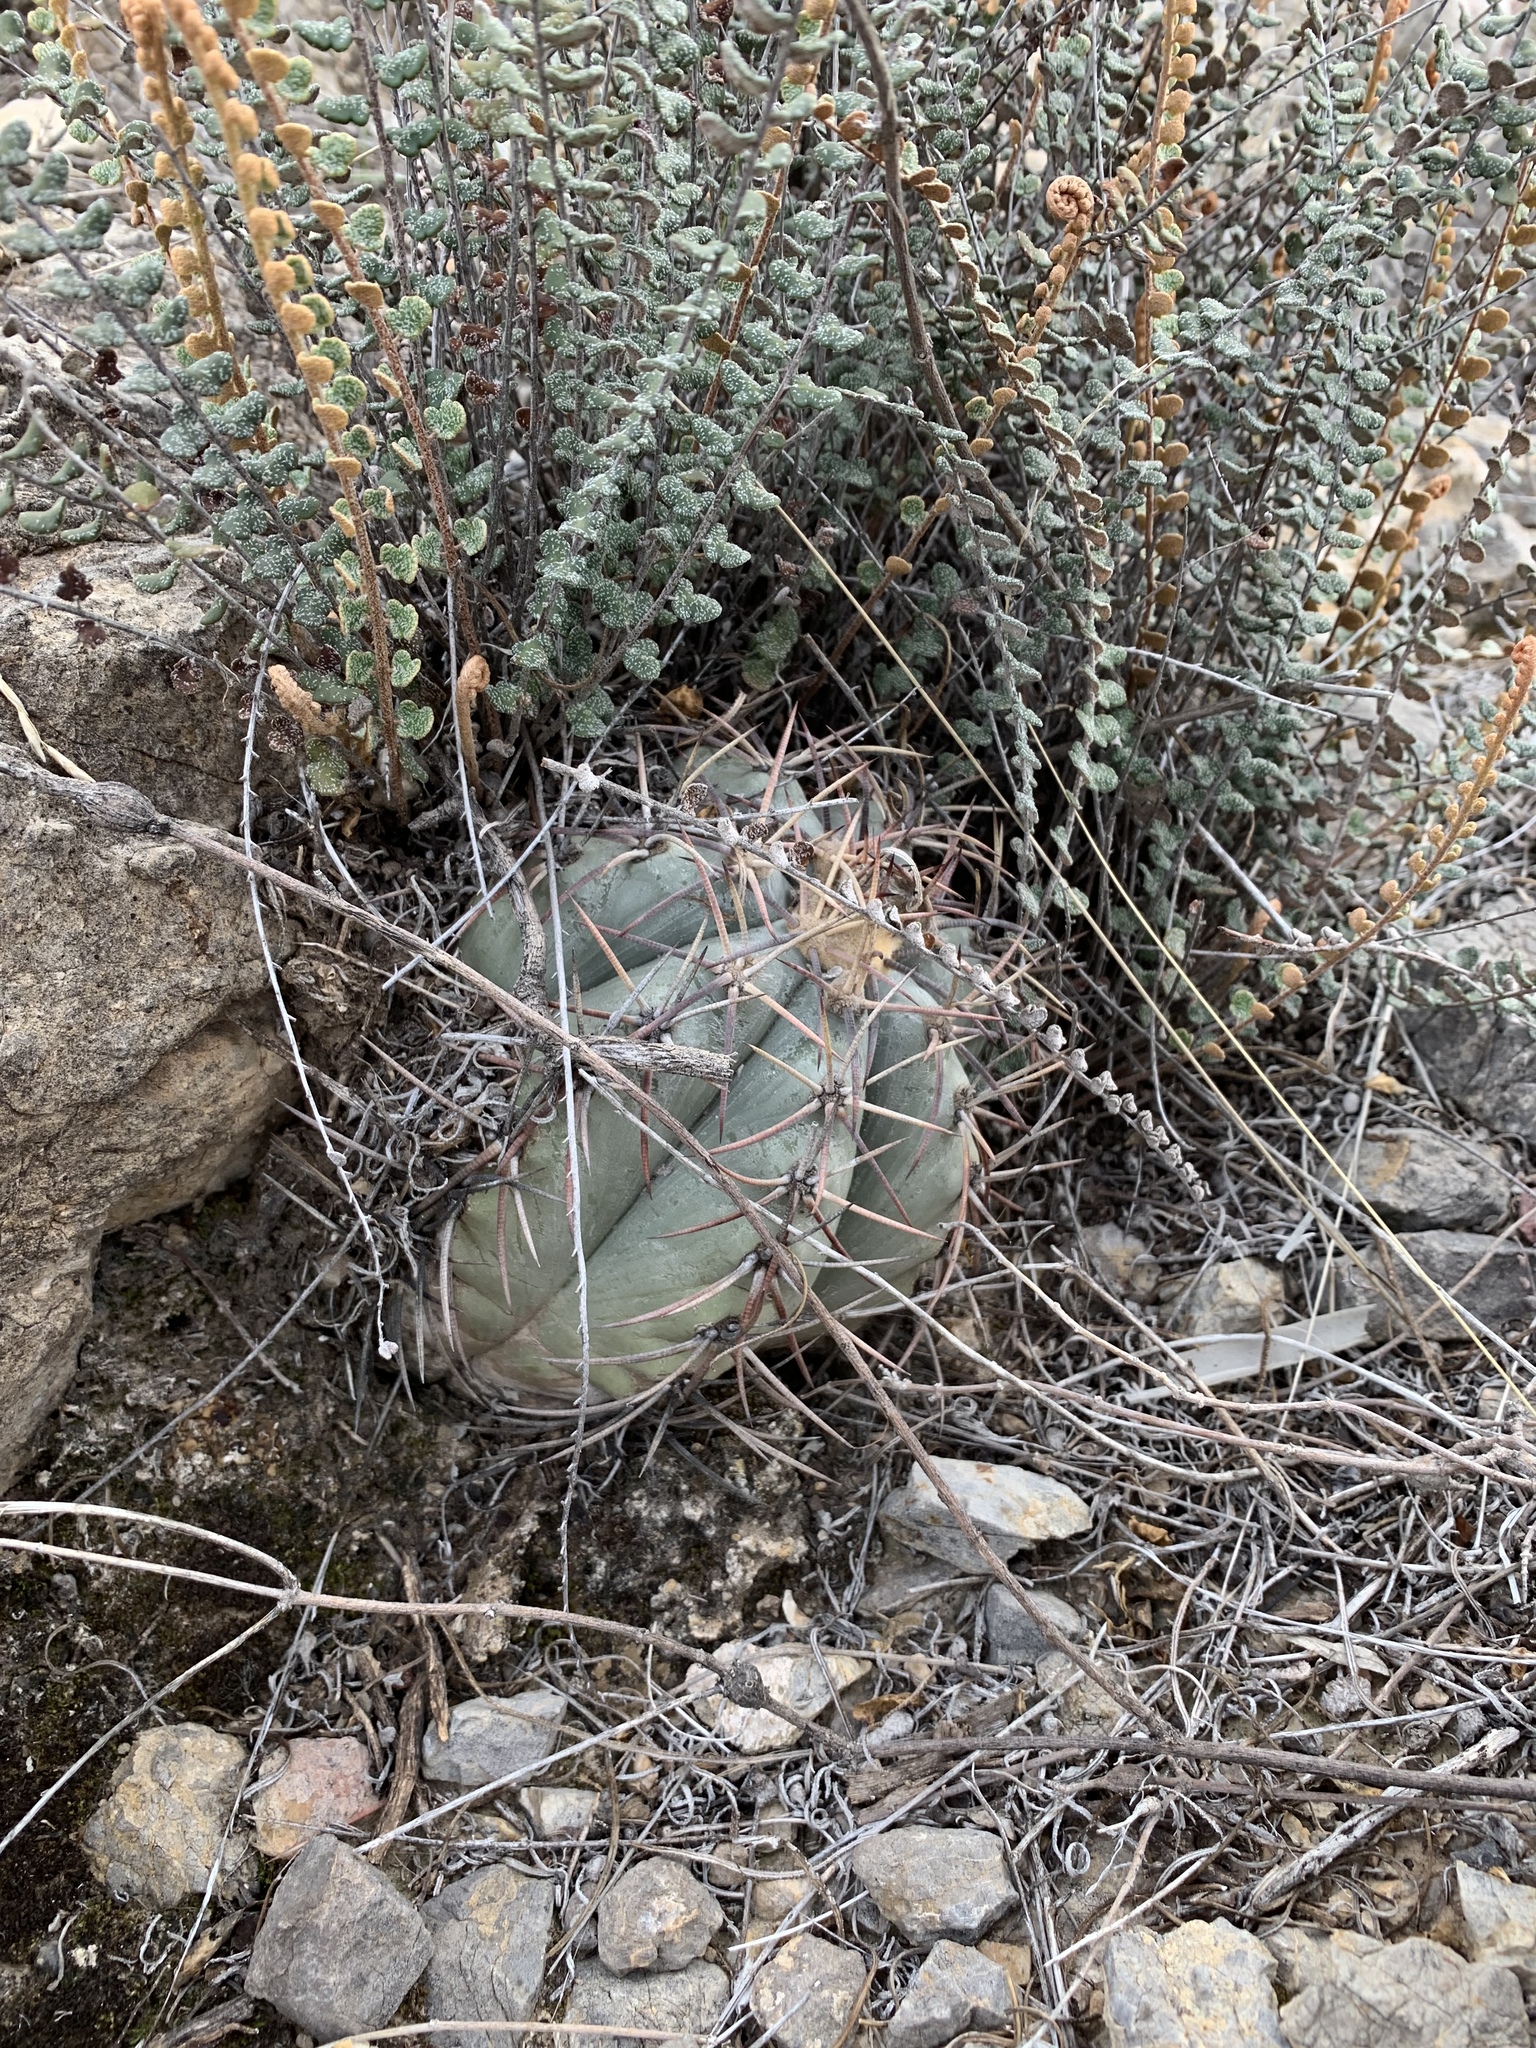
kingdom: Plantae
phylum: Tracheophyta
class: Magnoliopsida
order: Caryophyllales
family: Cactaceae
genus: Echinocactus
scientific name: Echinocactus horizonthalonius
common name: Devilshead
